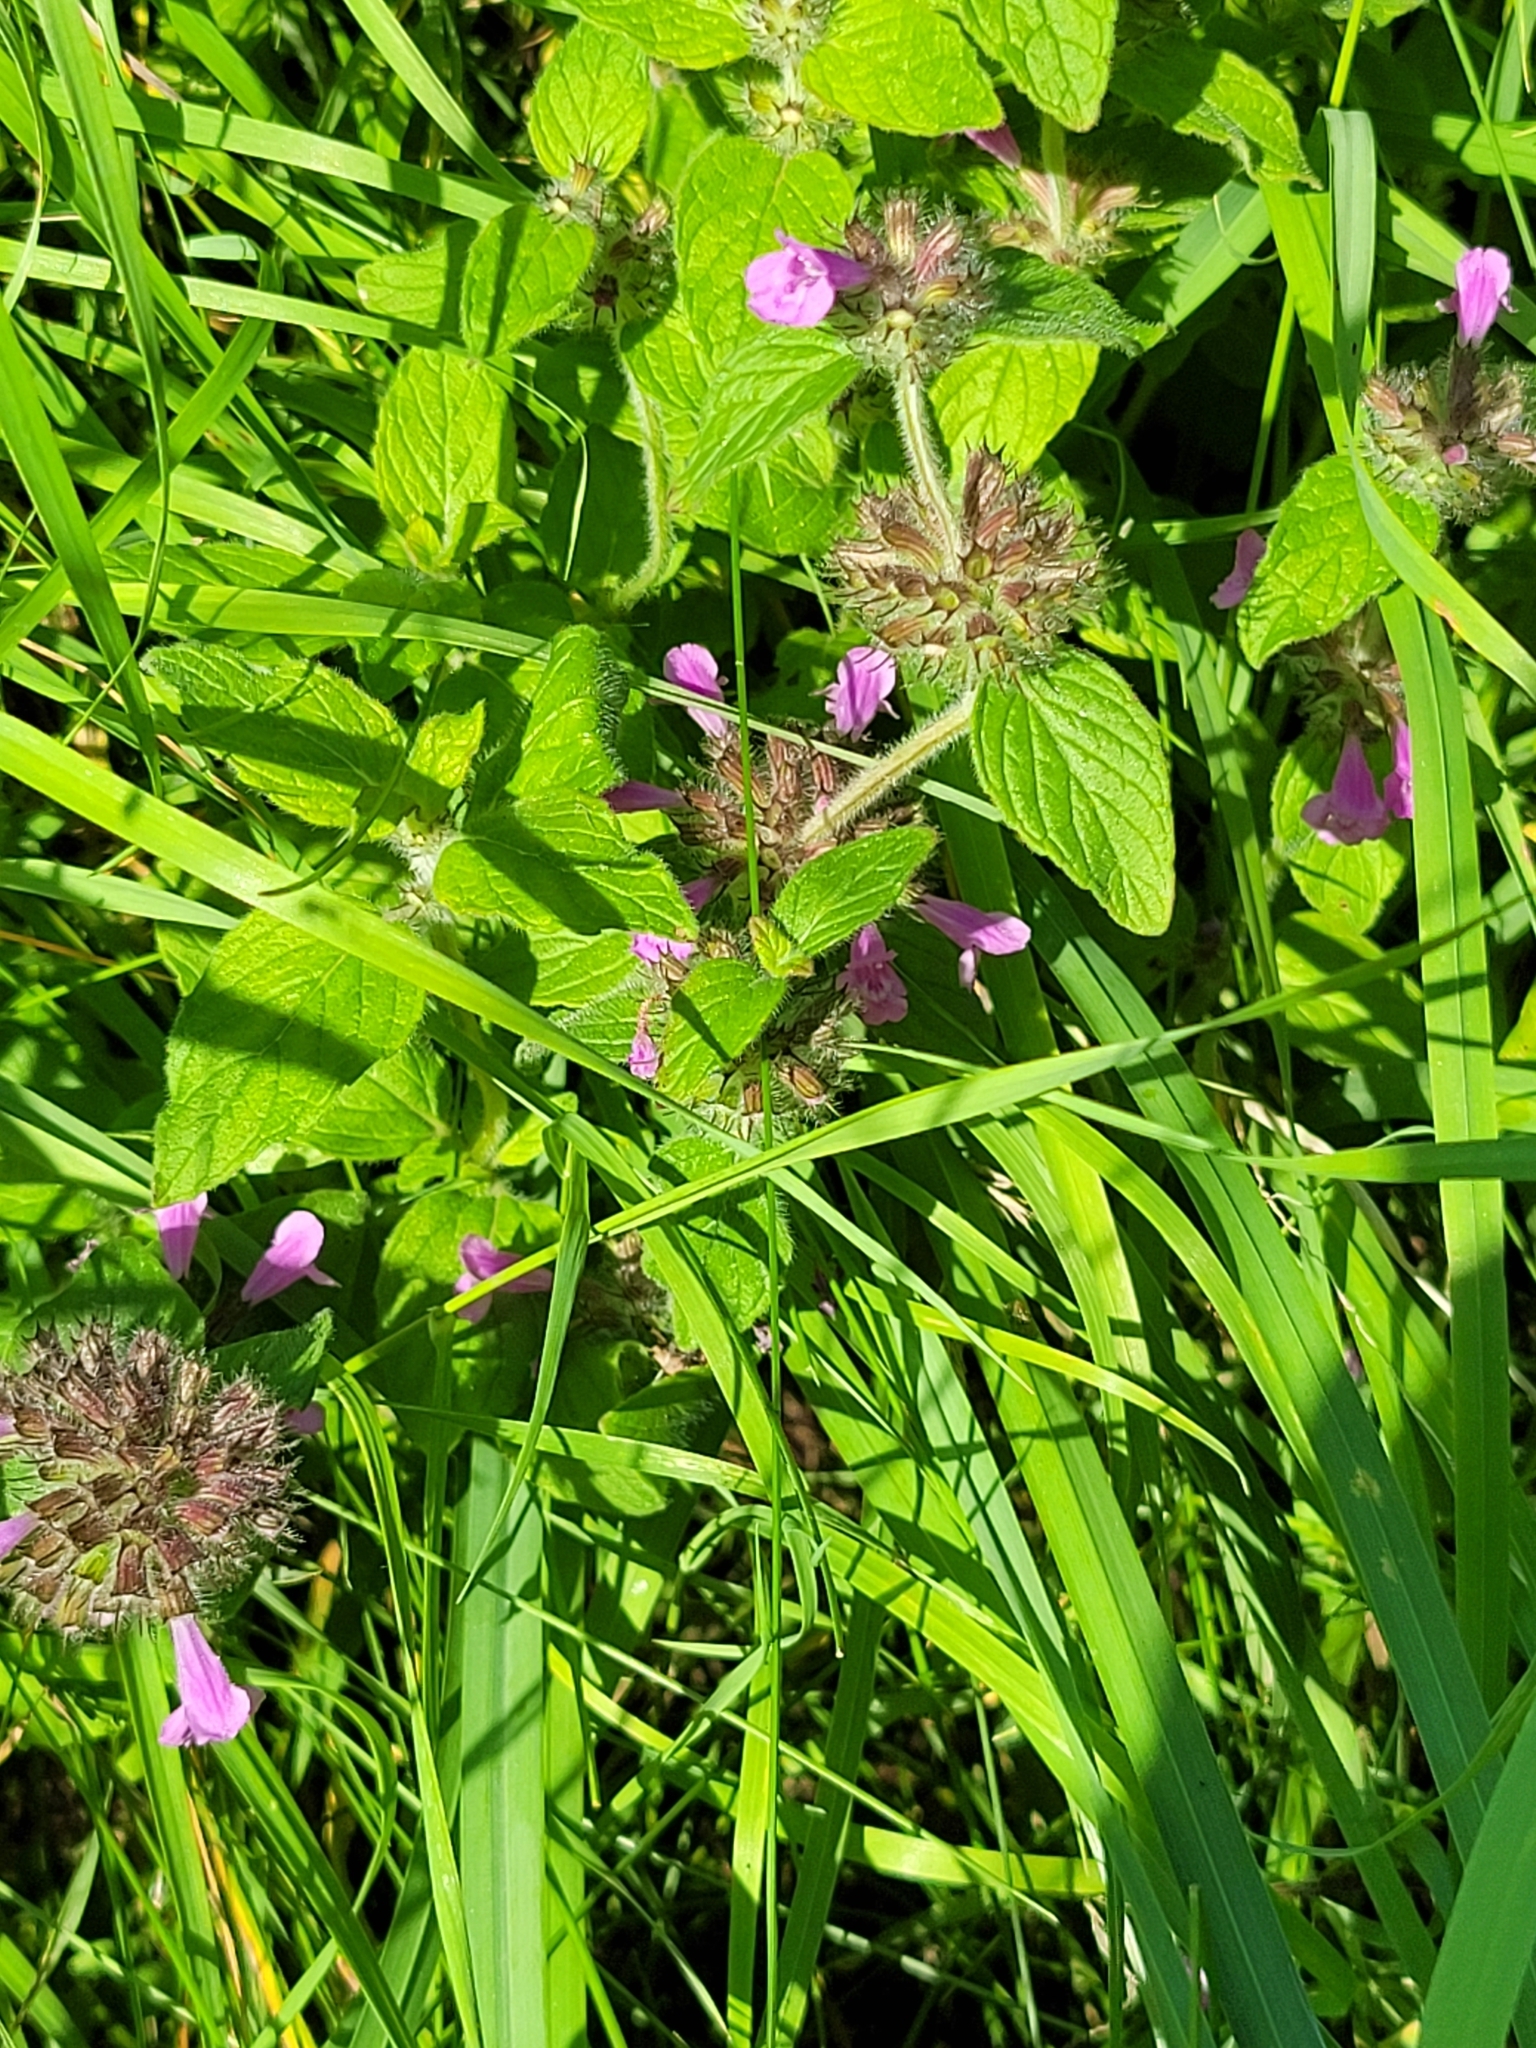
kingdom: Plantae
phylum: Tracheophyta
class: Magnoliopsida
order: Lamiales
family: Lamiaceae
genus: Clinopodium
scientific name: Clinopodium vulgare
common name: Wild basil
